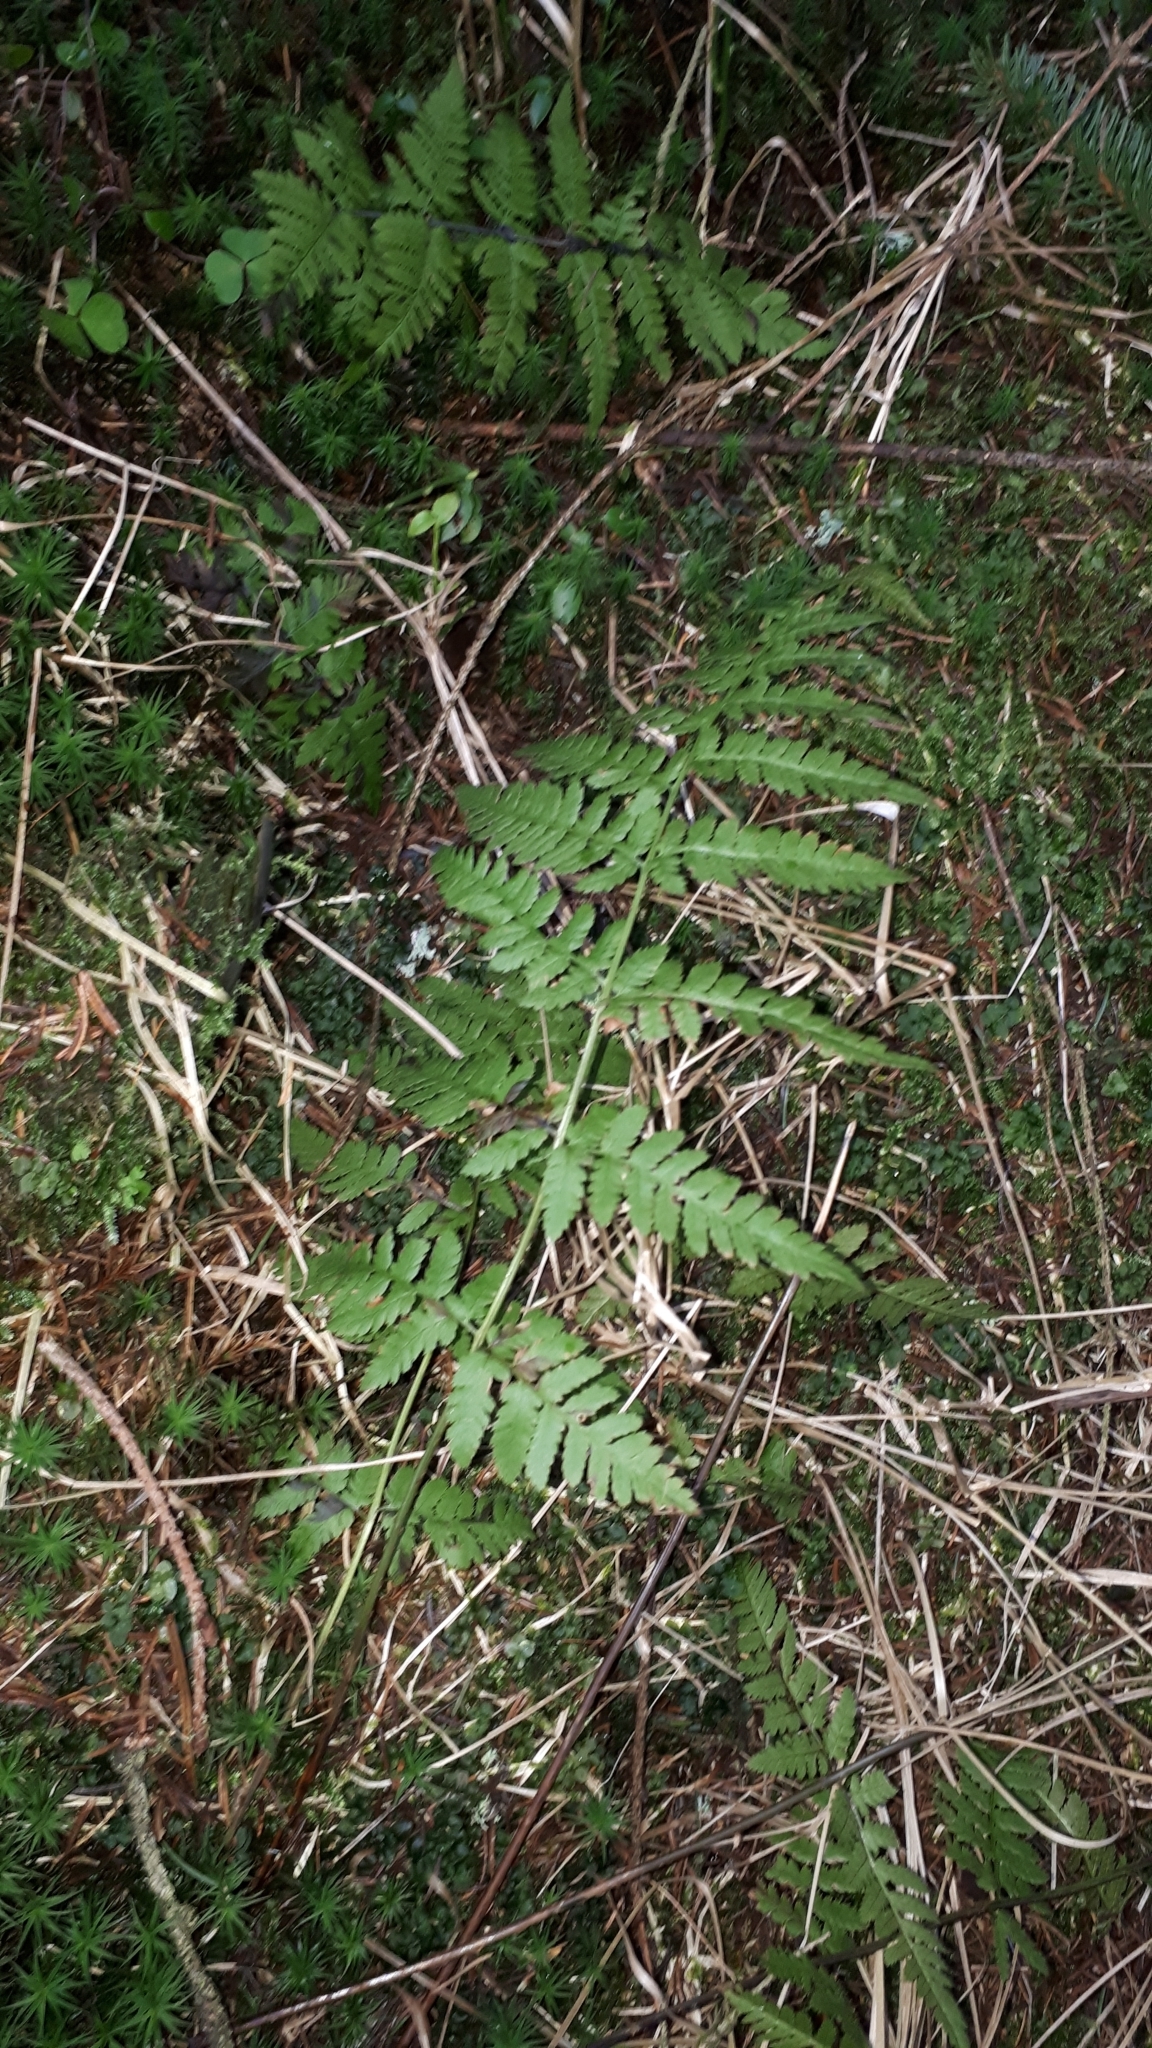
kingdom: Plantae
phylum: Tracheophyta
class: Polypodiopsida
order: Polypodiales
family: Dryopteridaceae
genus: Dryopteris
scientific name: Dryopteris carthusiana
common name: Narrow buckler-fern
